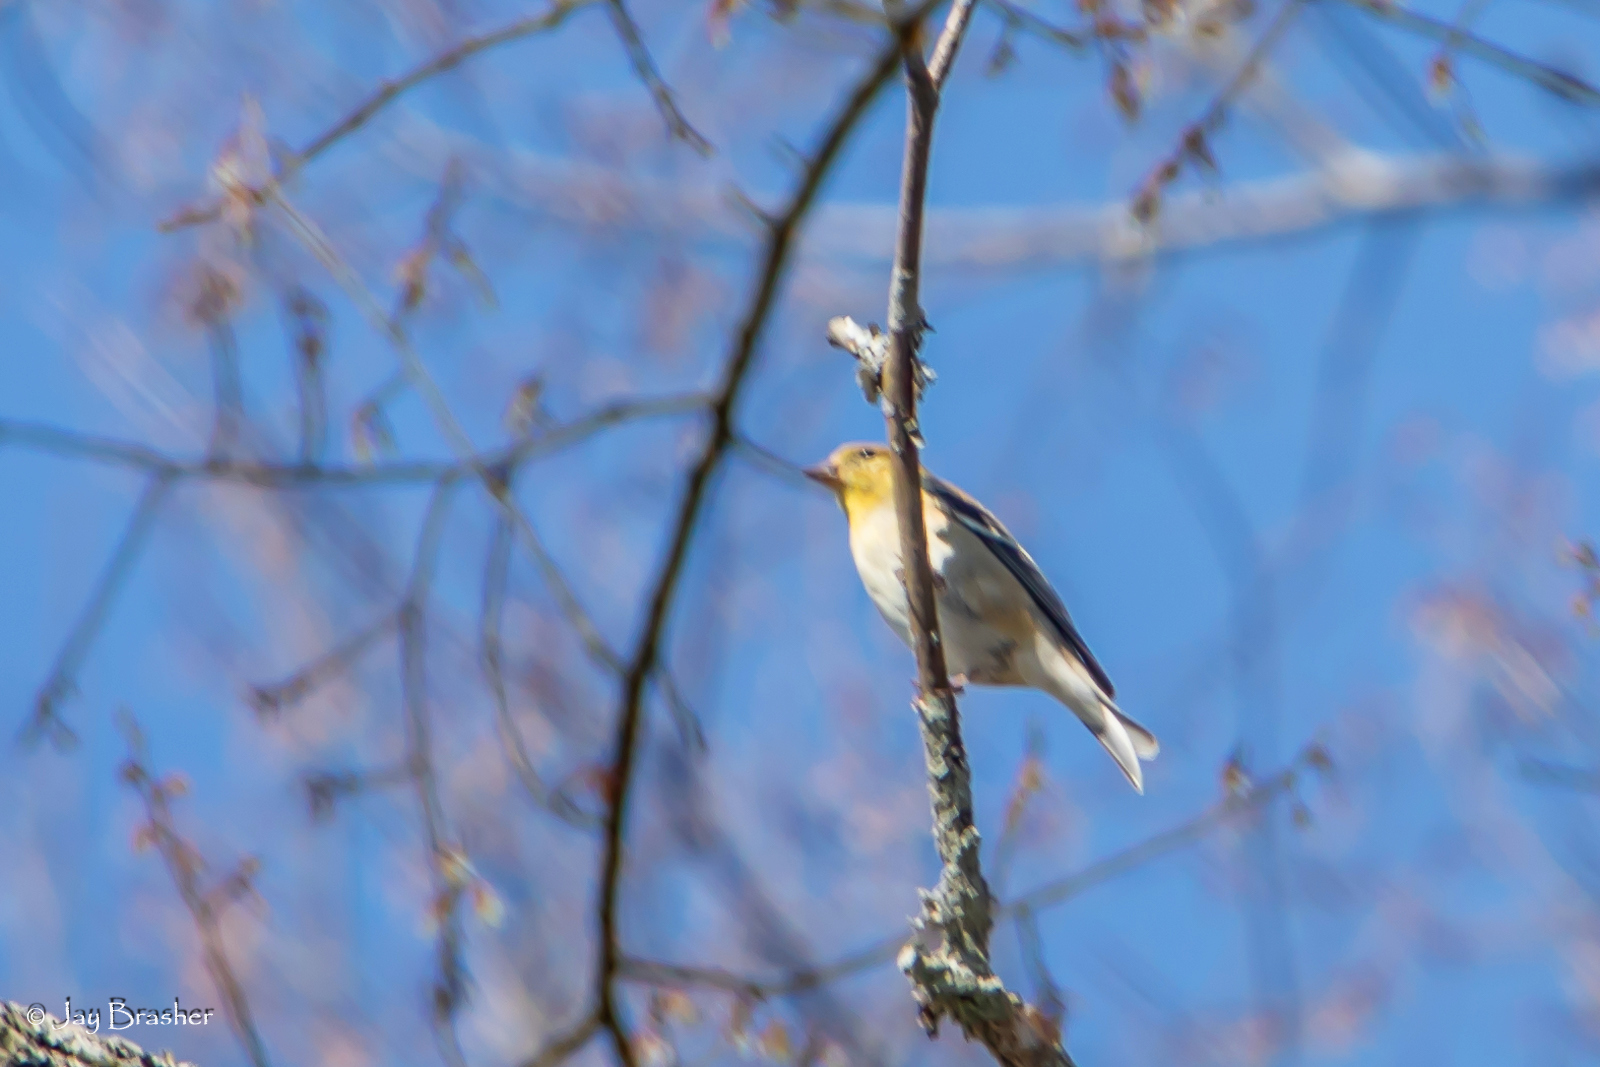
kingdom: Animalia
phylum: Chordata
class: Aves
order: Passeriformes
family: Fringillidae
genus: Spinus
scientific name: Spinus tristis
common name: American goldfinch
